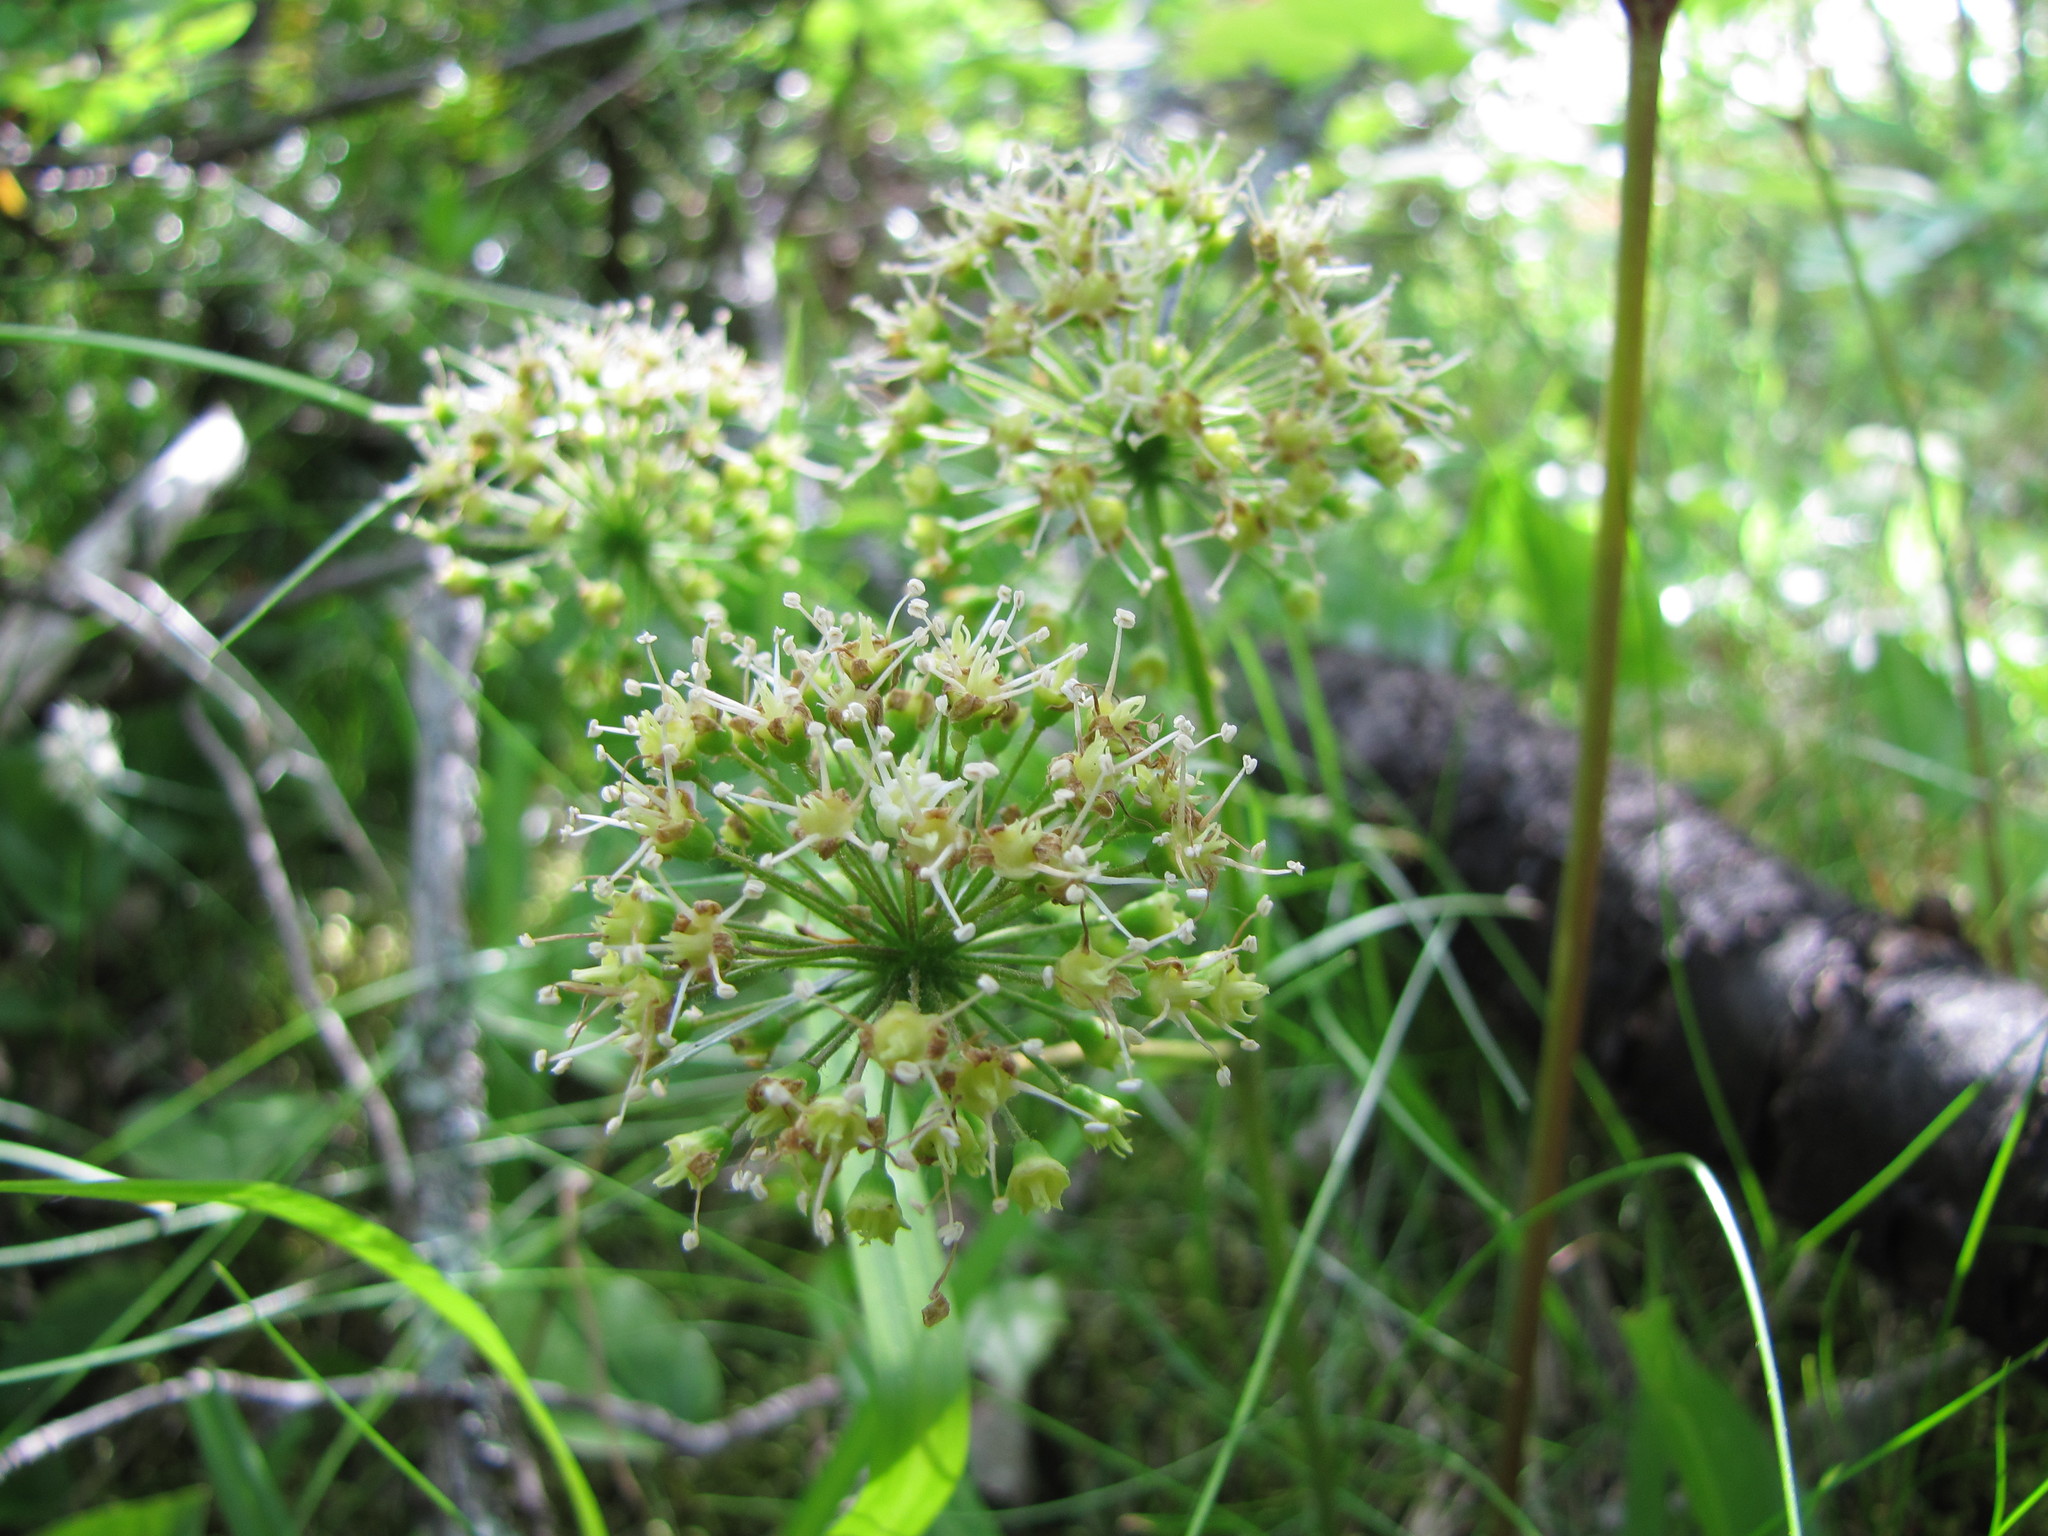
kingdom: Plantae
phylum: Tracheophyta
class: Magnoliopsida
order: Apiales
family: Araliaceae
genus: Aralia
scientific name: Aralia nudicaulis
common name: Wild sarsaparilla
